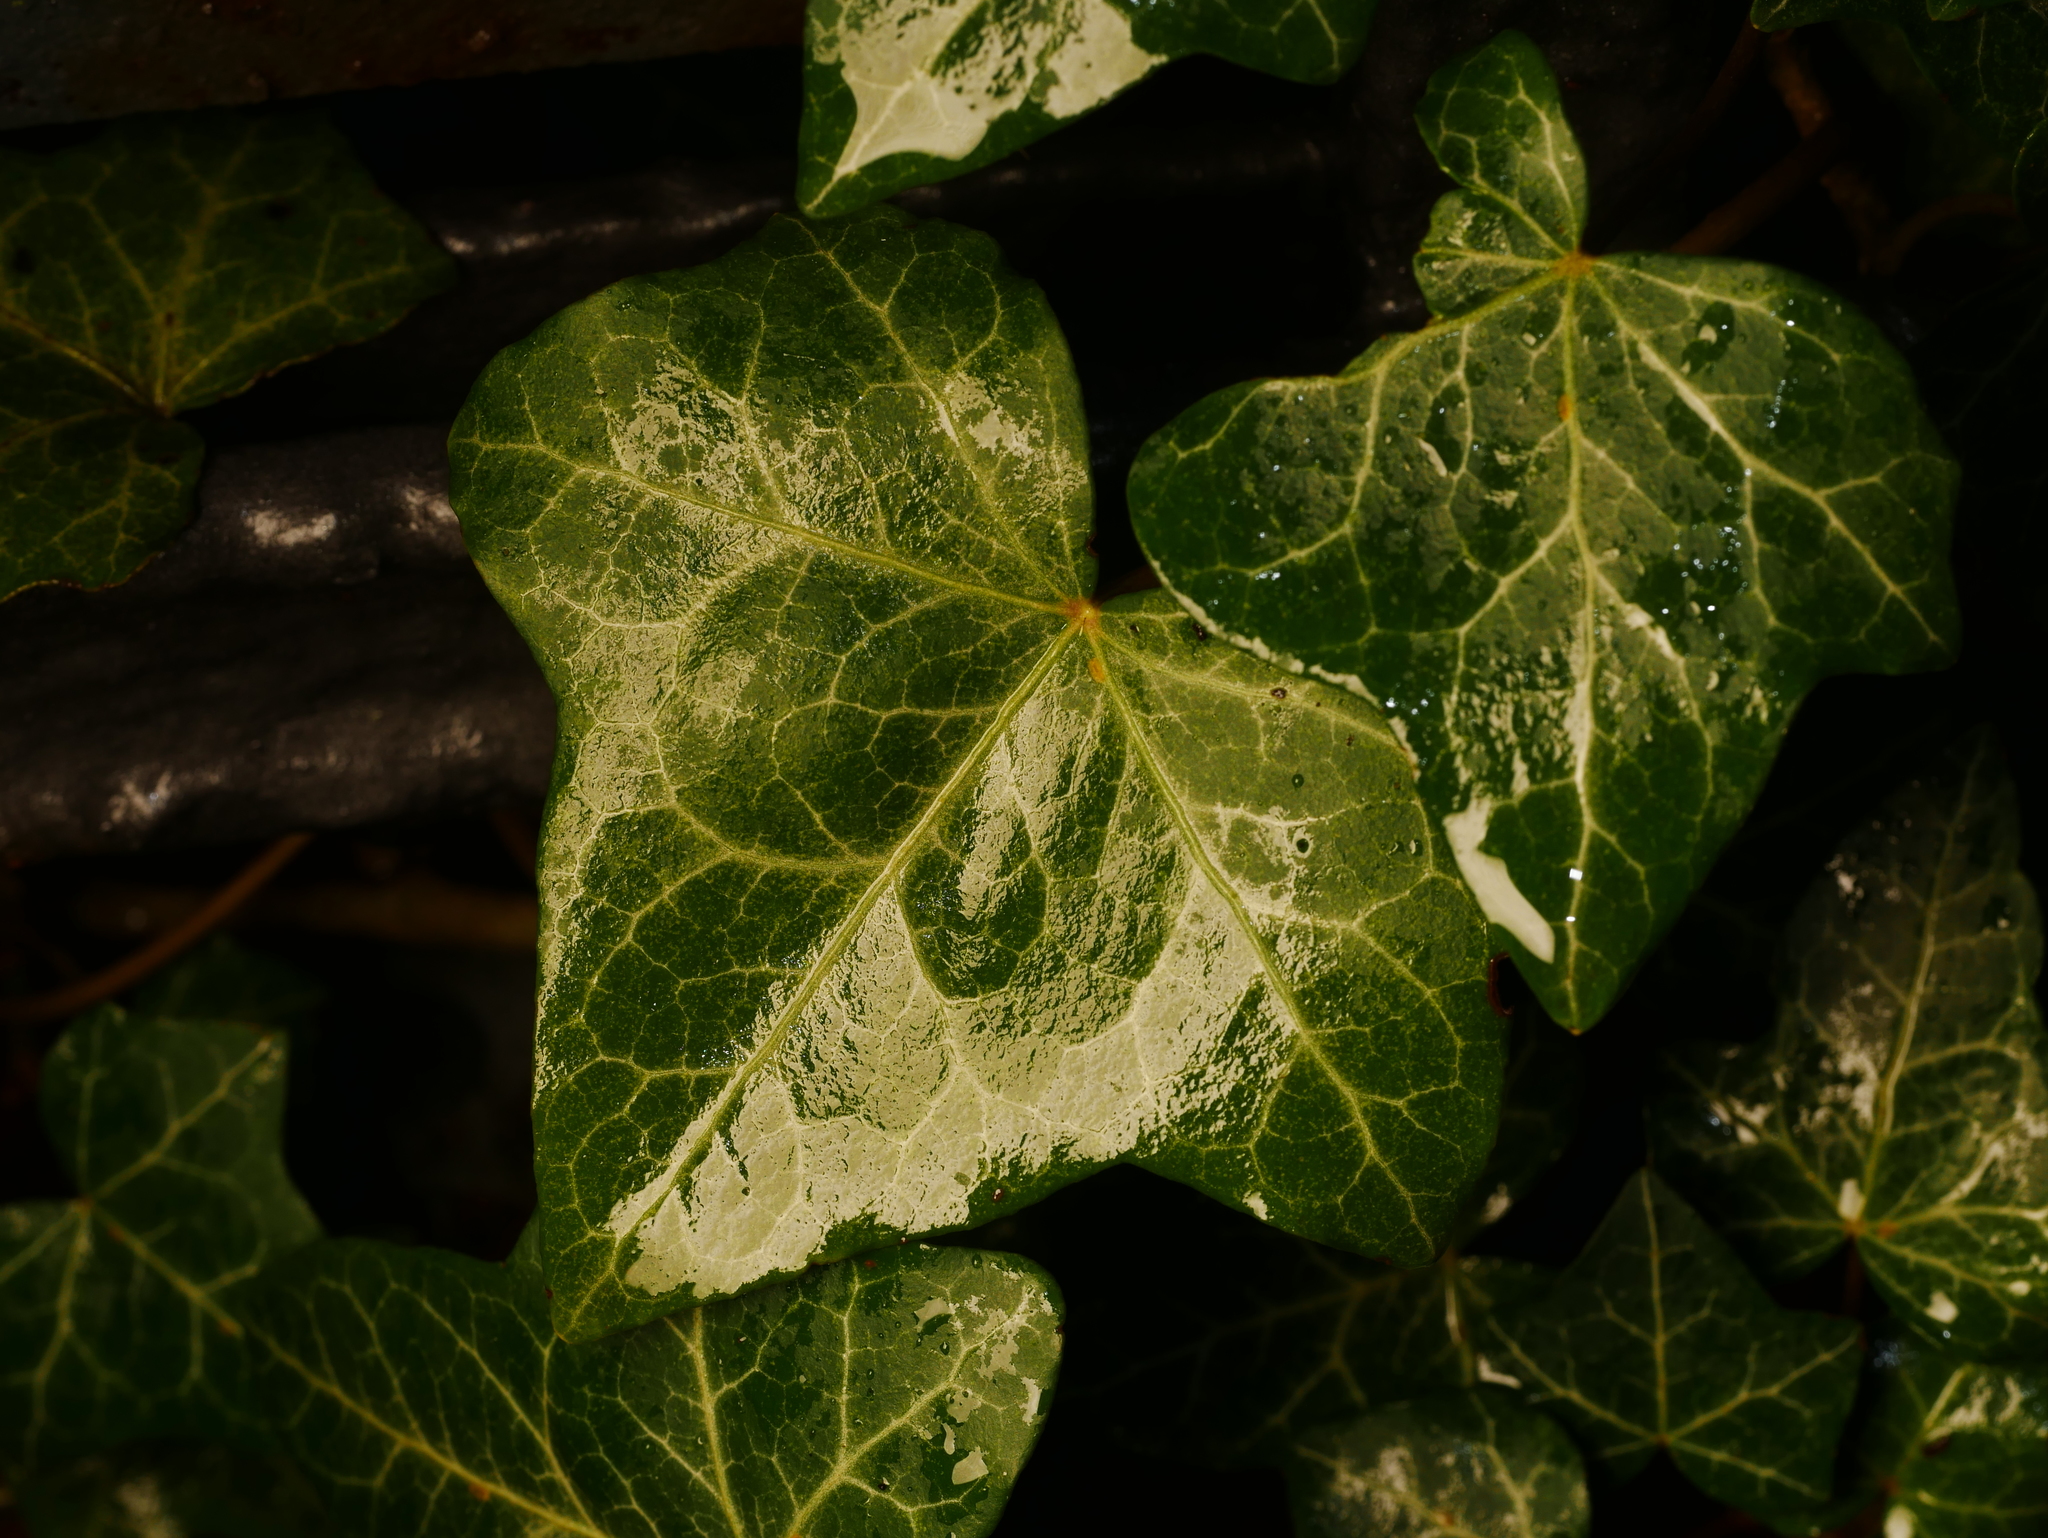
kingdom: Plantae
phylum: Tracheophyta
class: Magnoliopsida
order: Apiales
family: Araliaceae
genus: Hedera
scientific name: Hedera helix
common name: Ivy
